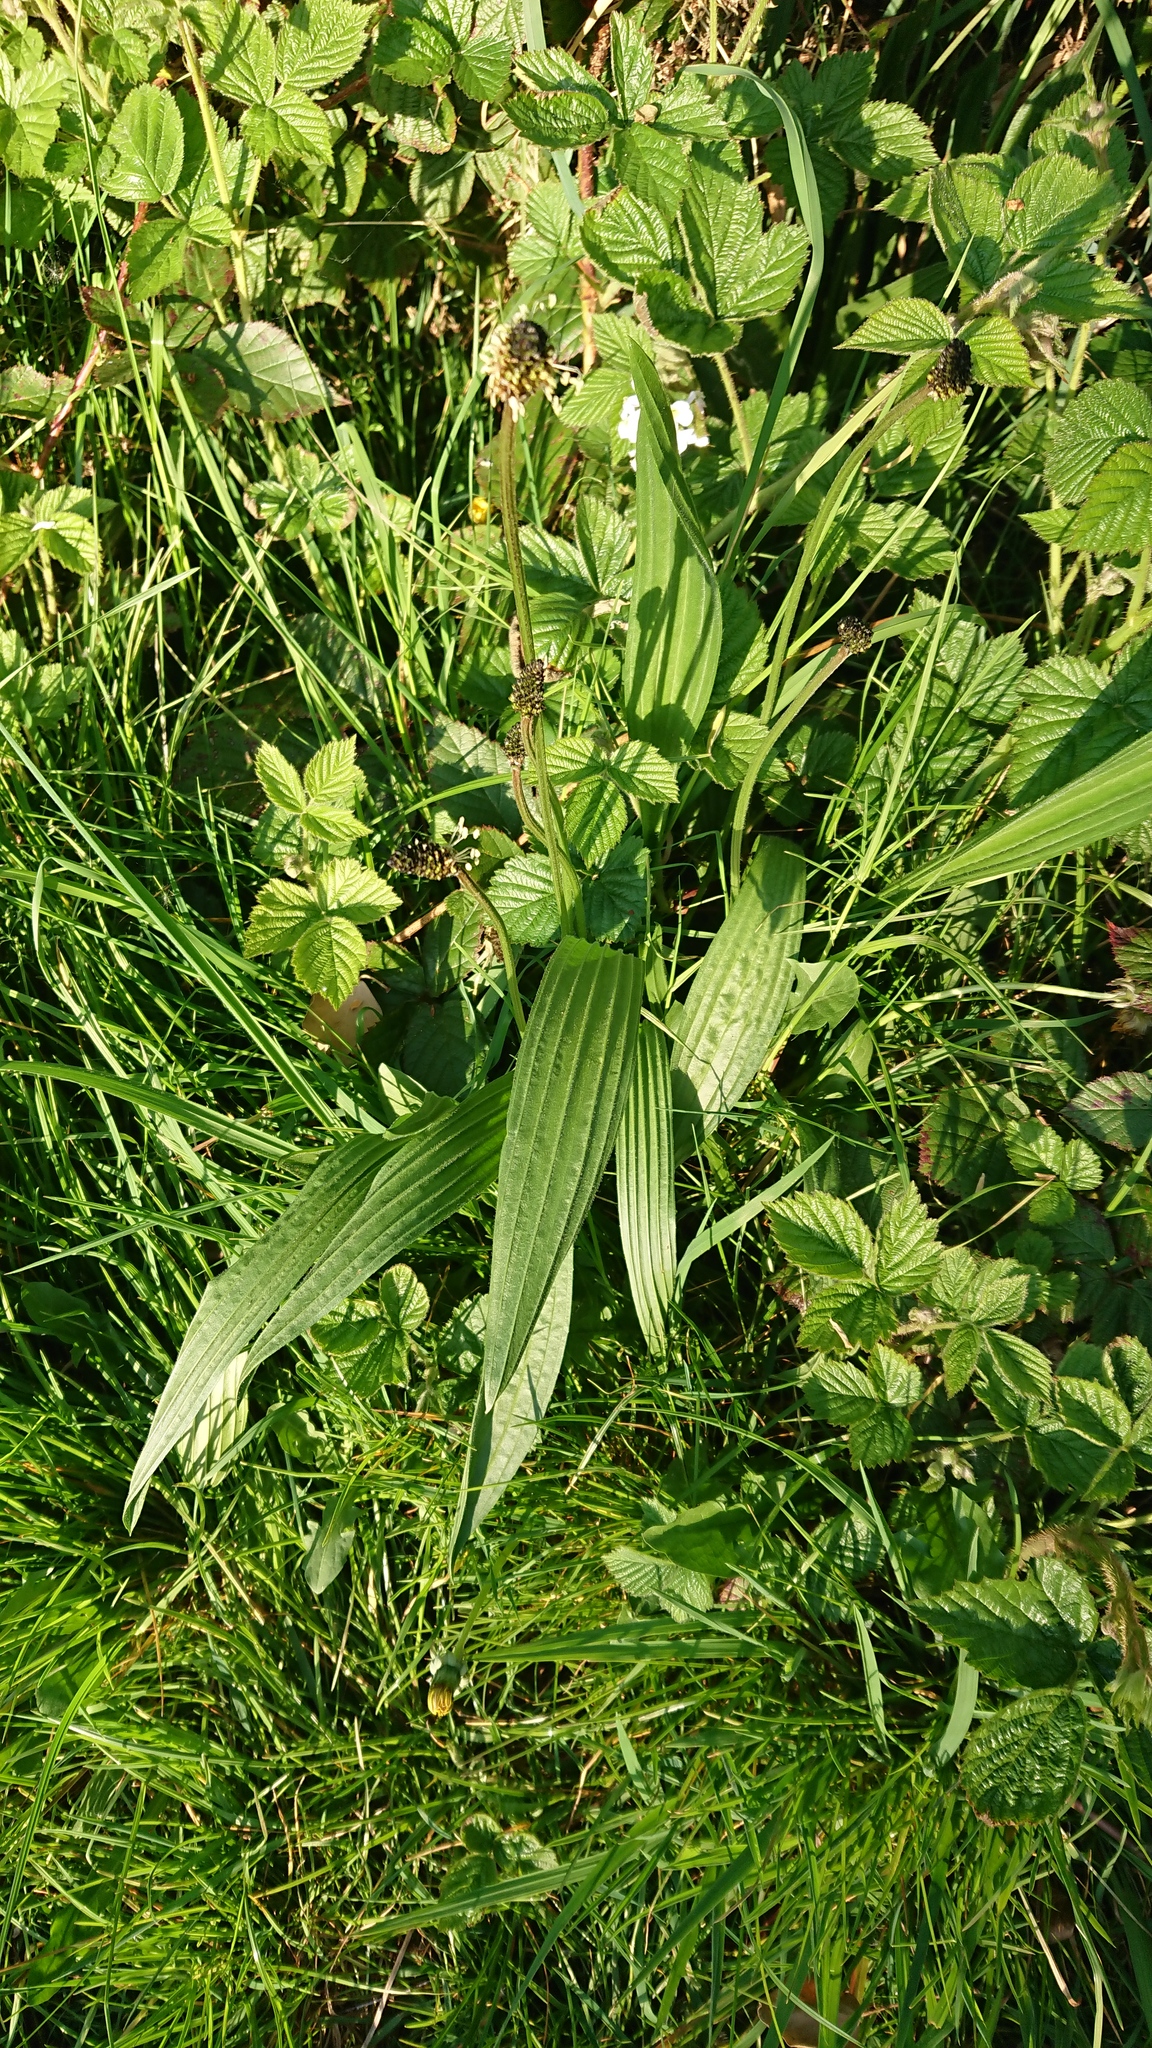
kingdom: Plantae
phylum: Tracheophyta
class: Magnoliopsida
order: Lamiales
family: Plantaginaceae
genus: Plantago
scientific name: Plantago lanceolata
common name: Ribwort plantain
